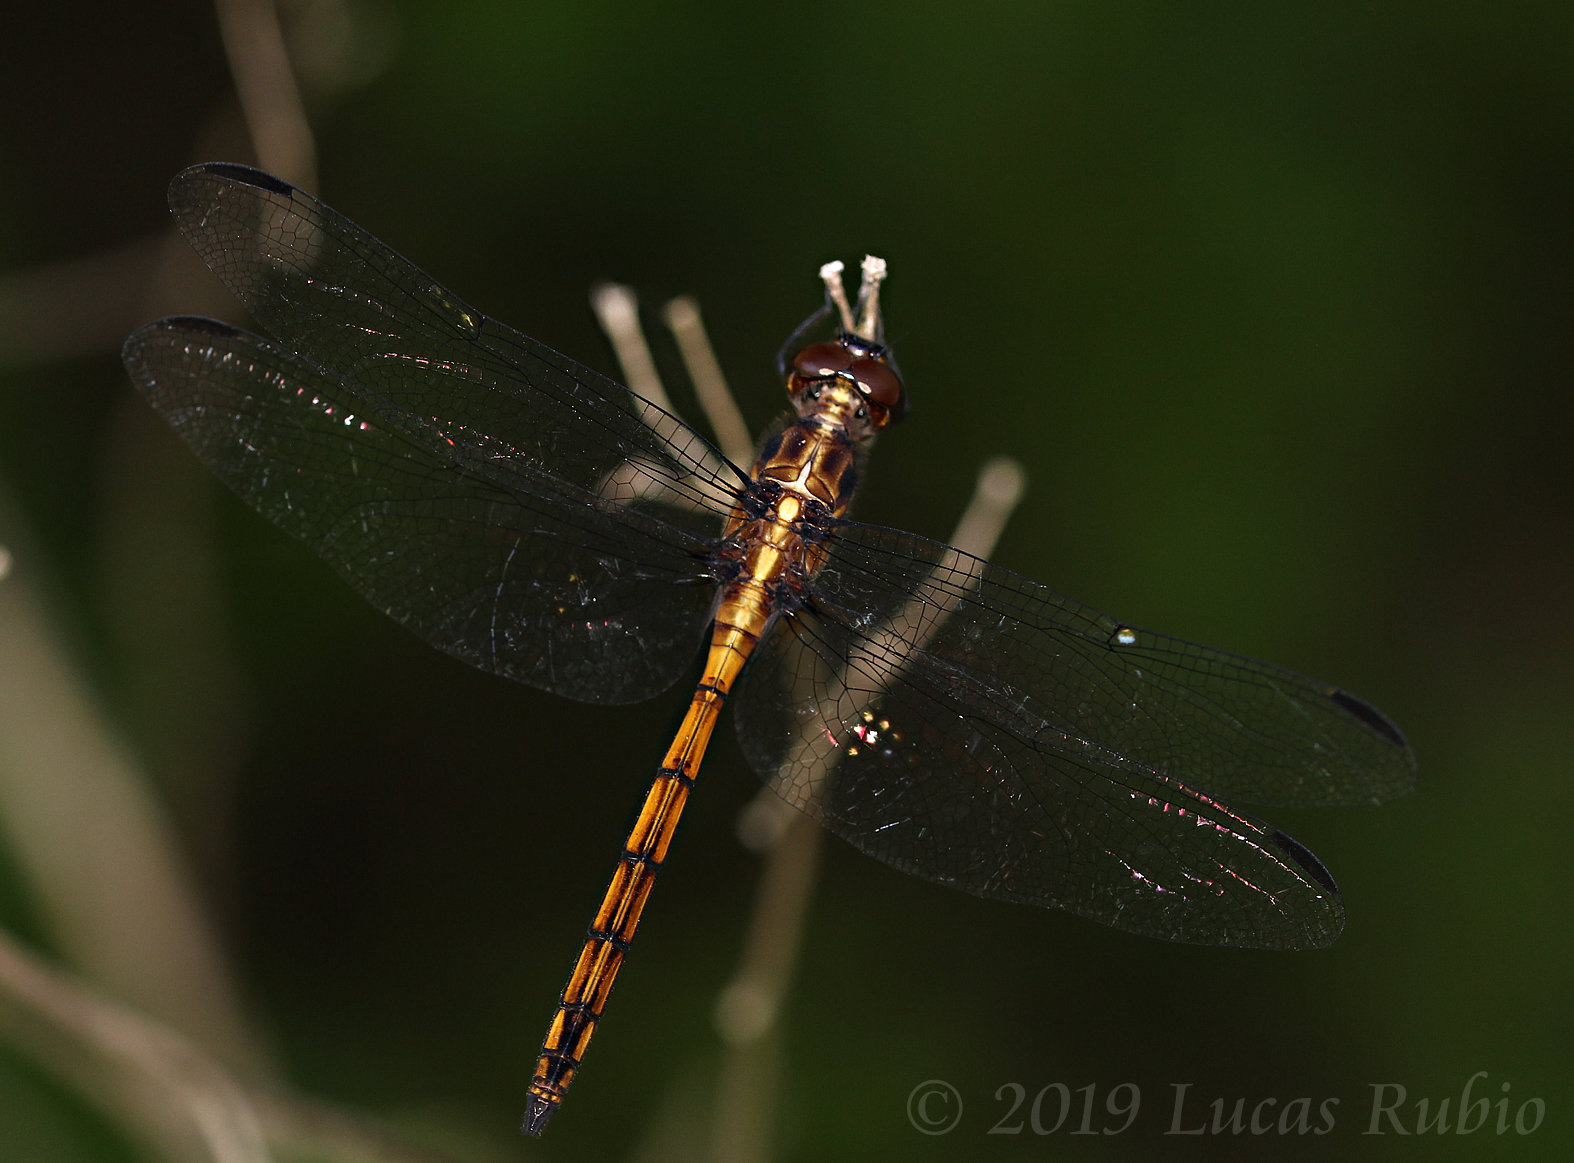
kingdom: Animalia
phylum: Arthropoda
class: Insecta
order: Odonata
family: Libellulidae
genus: Orthemis
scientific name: Orthemis ambinigra
